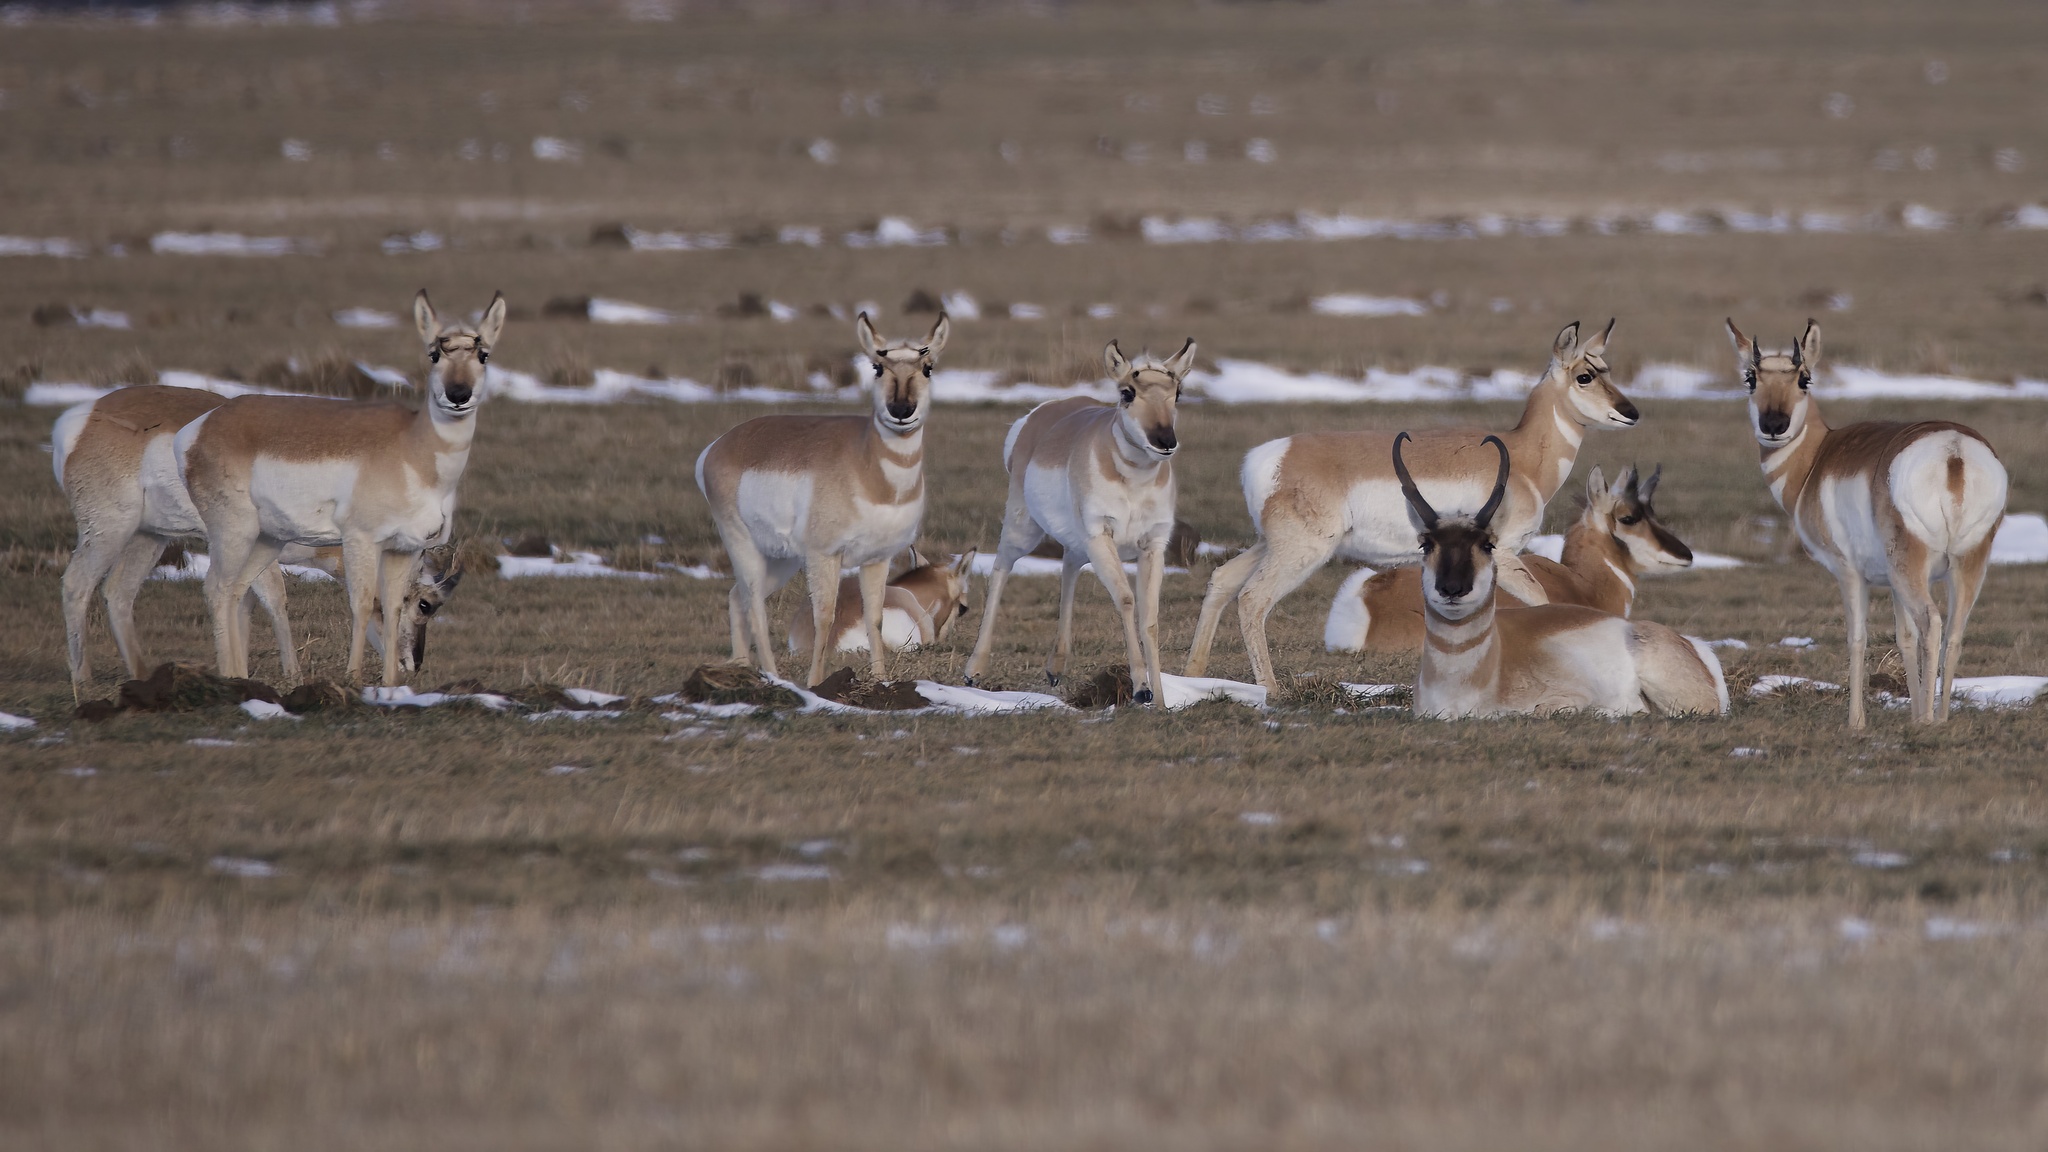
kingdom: Animalia
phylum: Chordata
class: Mammalia
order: Artiodactyla
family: Antilocapridae
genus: Antilocapra
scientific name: Antilocapra americana
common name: Pronghorn
